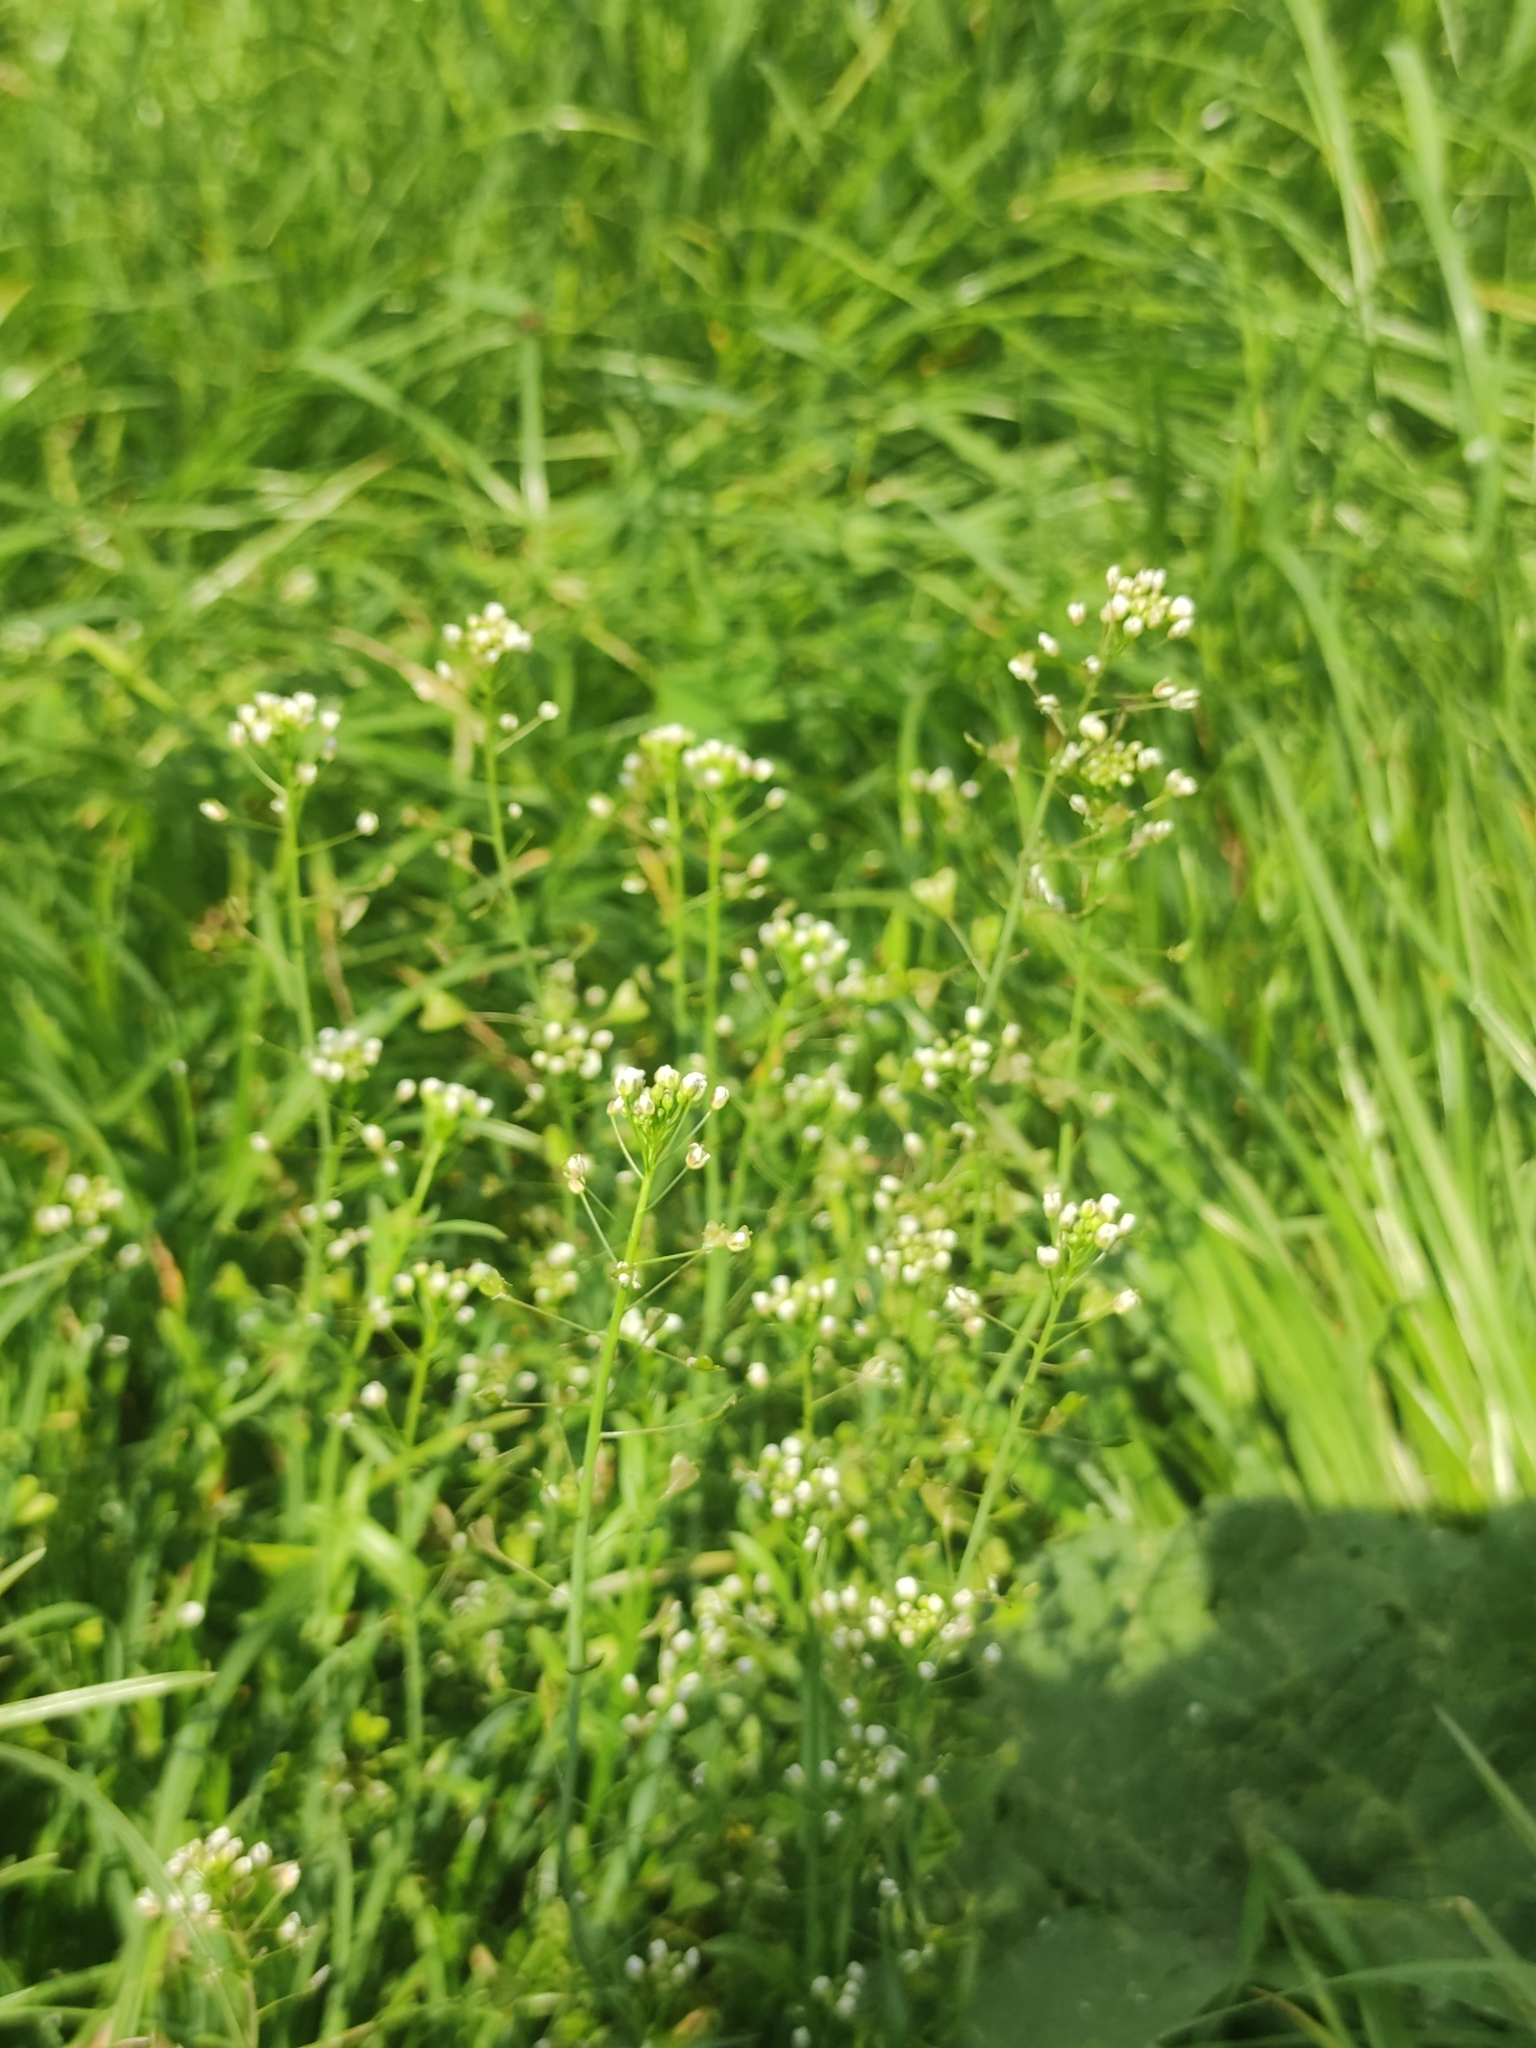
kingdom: Plantae
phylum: Tracheophyta
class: Magnoliopsida
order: Brassicales
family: Brassicaceae
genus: Capsella
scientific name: Capsella bursa-pastoris
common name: Shepherd's purse
